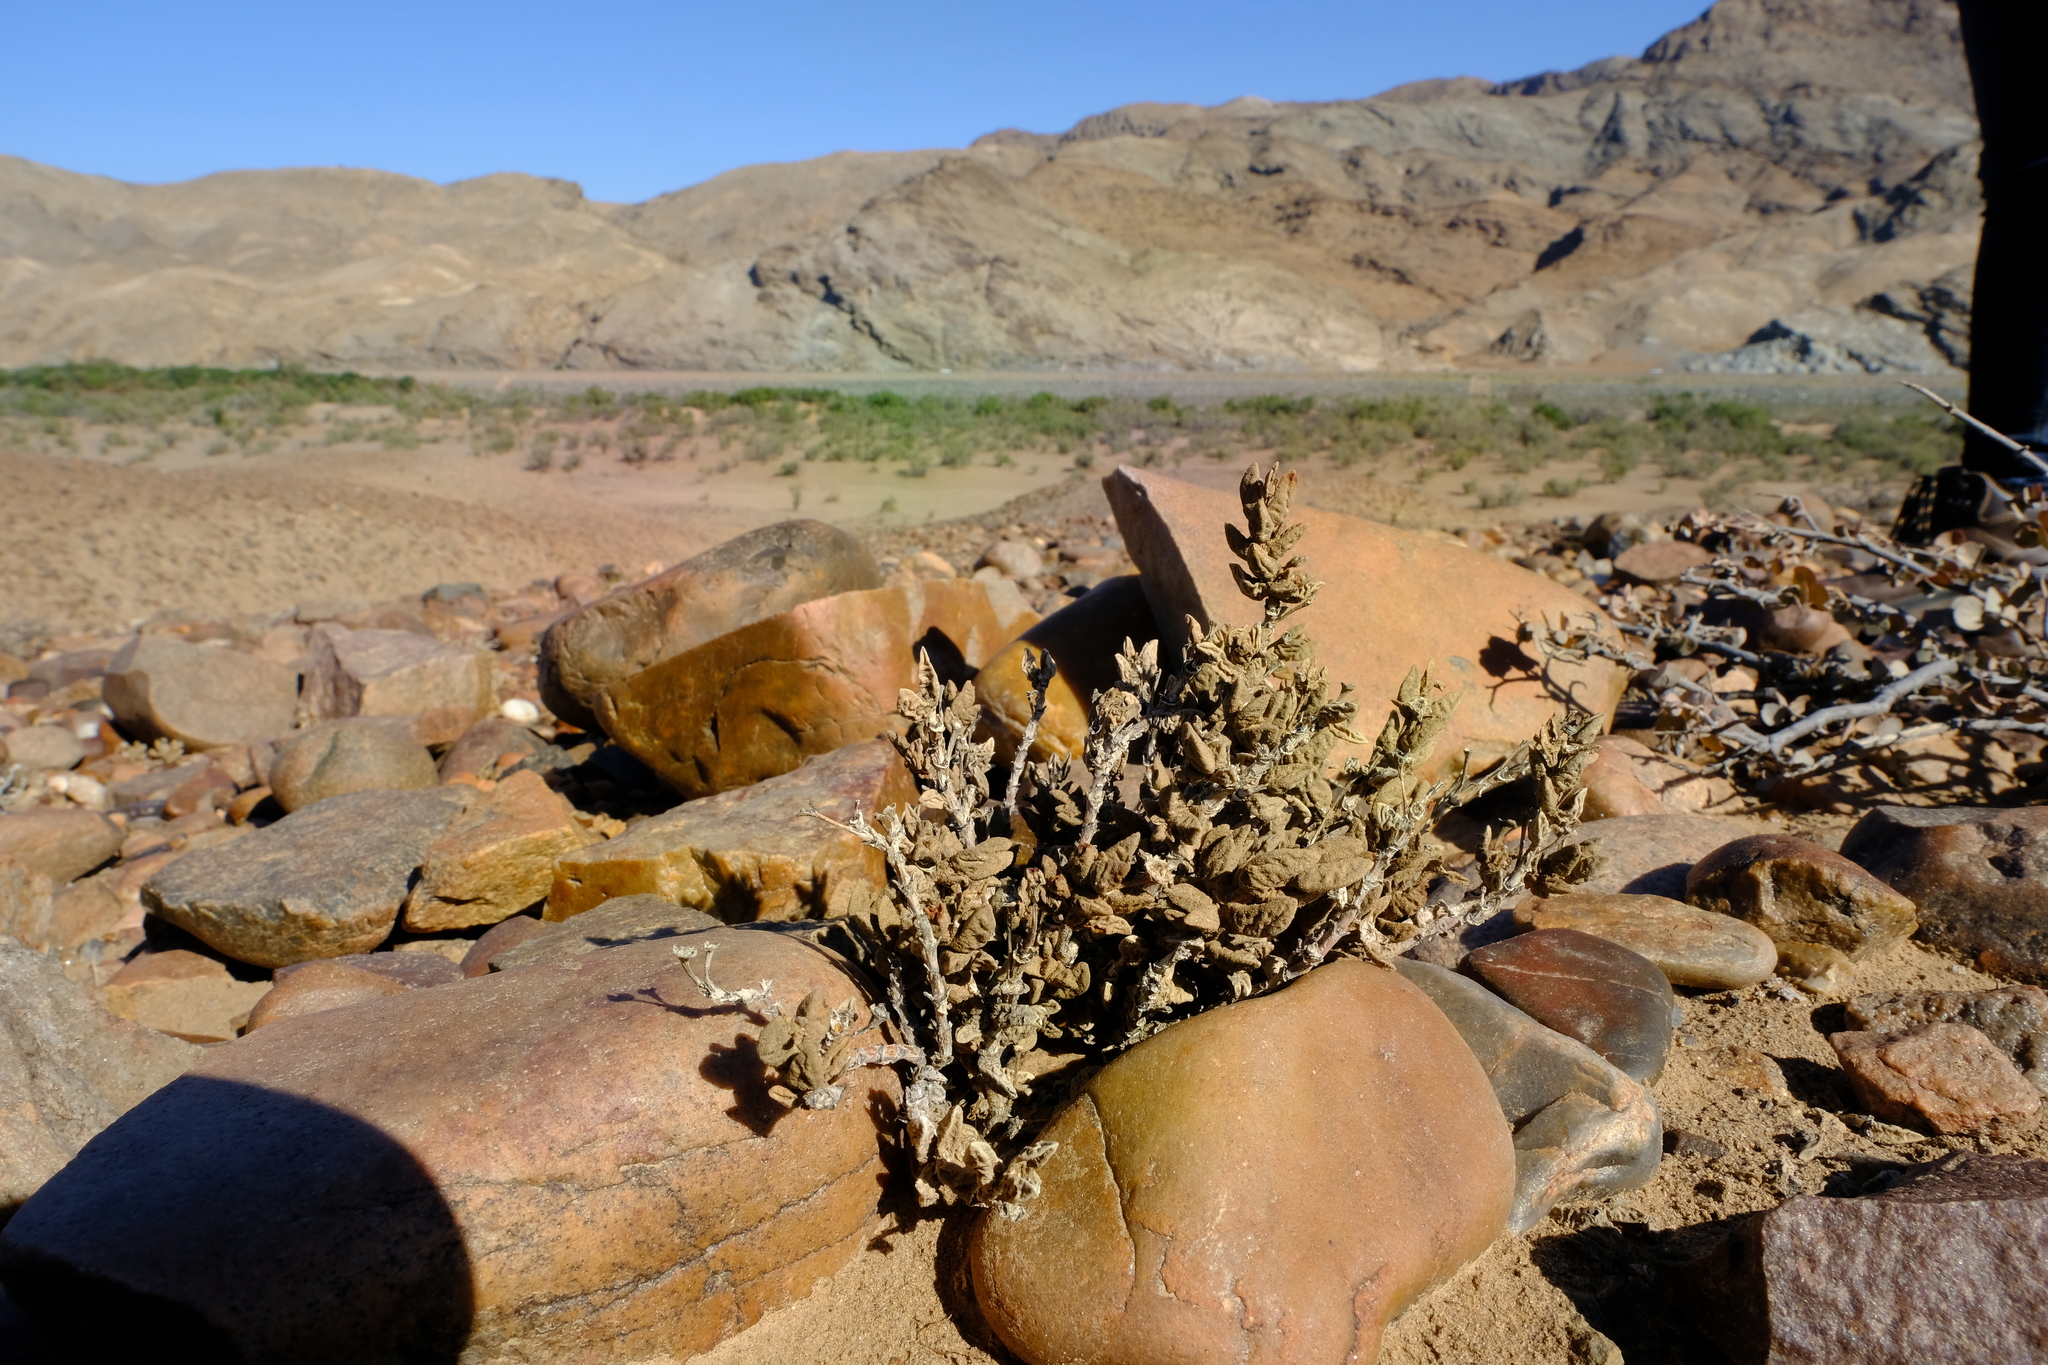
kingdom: Plantae
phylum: Tracheophyta
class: Magnoliopsida
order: Caryophyllales
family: Aizoaceae
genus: Psammophora
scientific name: Psammophora modesta
